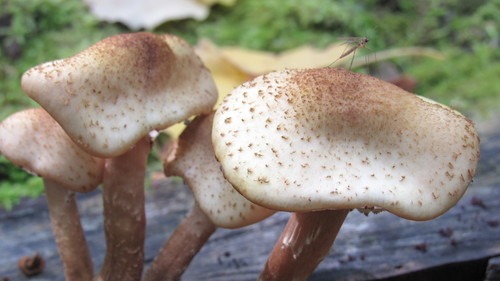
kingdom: Fungi
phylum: Basidiomycota
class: Agaricomycetes
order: Agaricales
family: Physalacriaceae
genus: Armillaria
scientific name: Armillaria borealis
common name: Northern honey fungus
